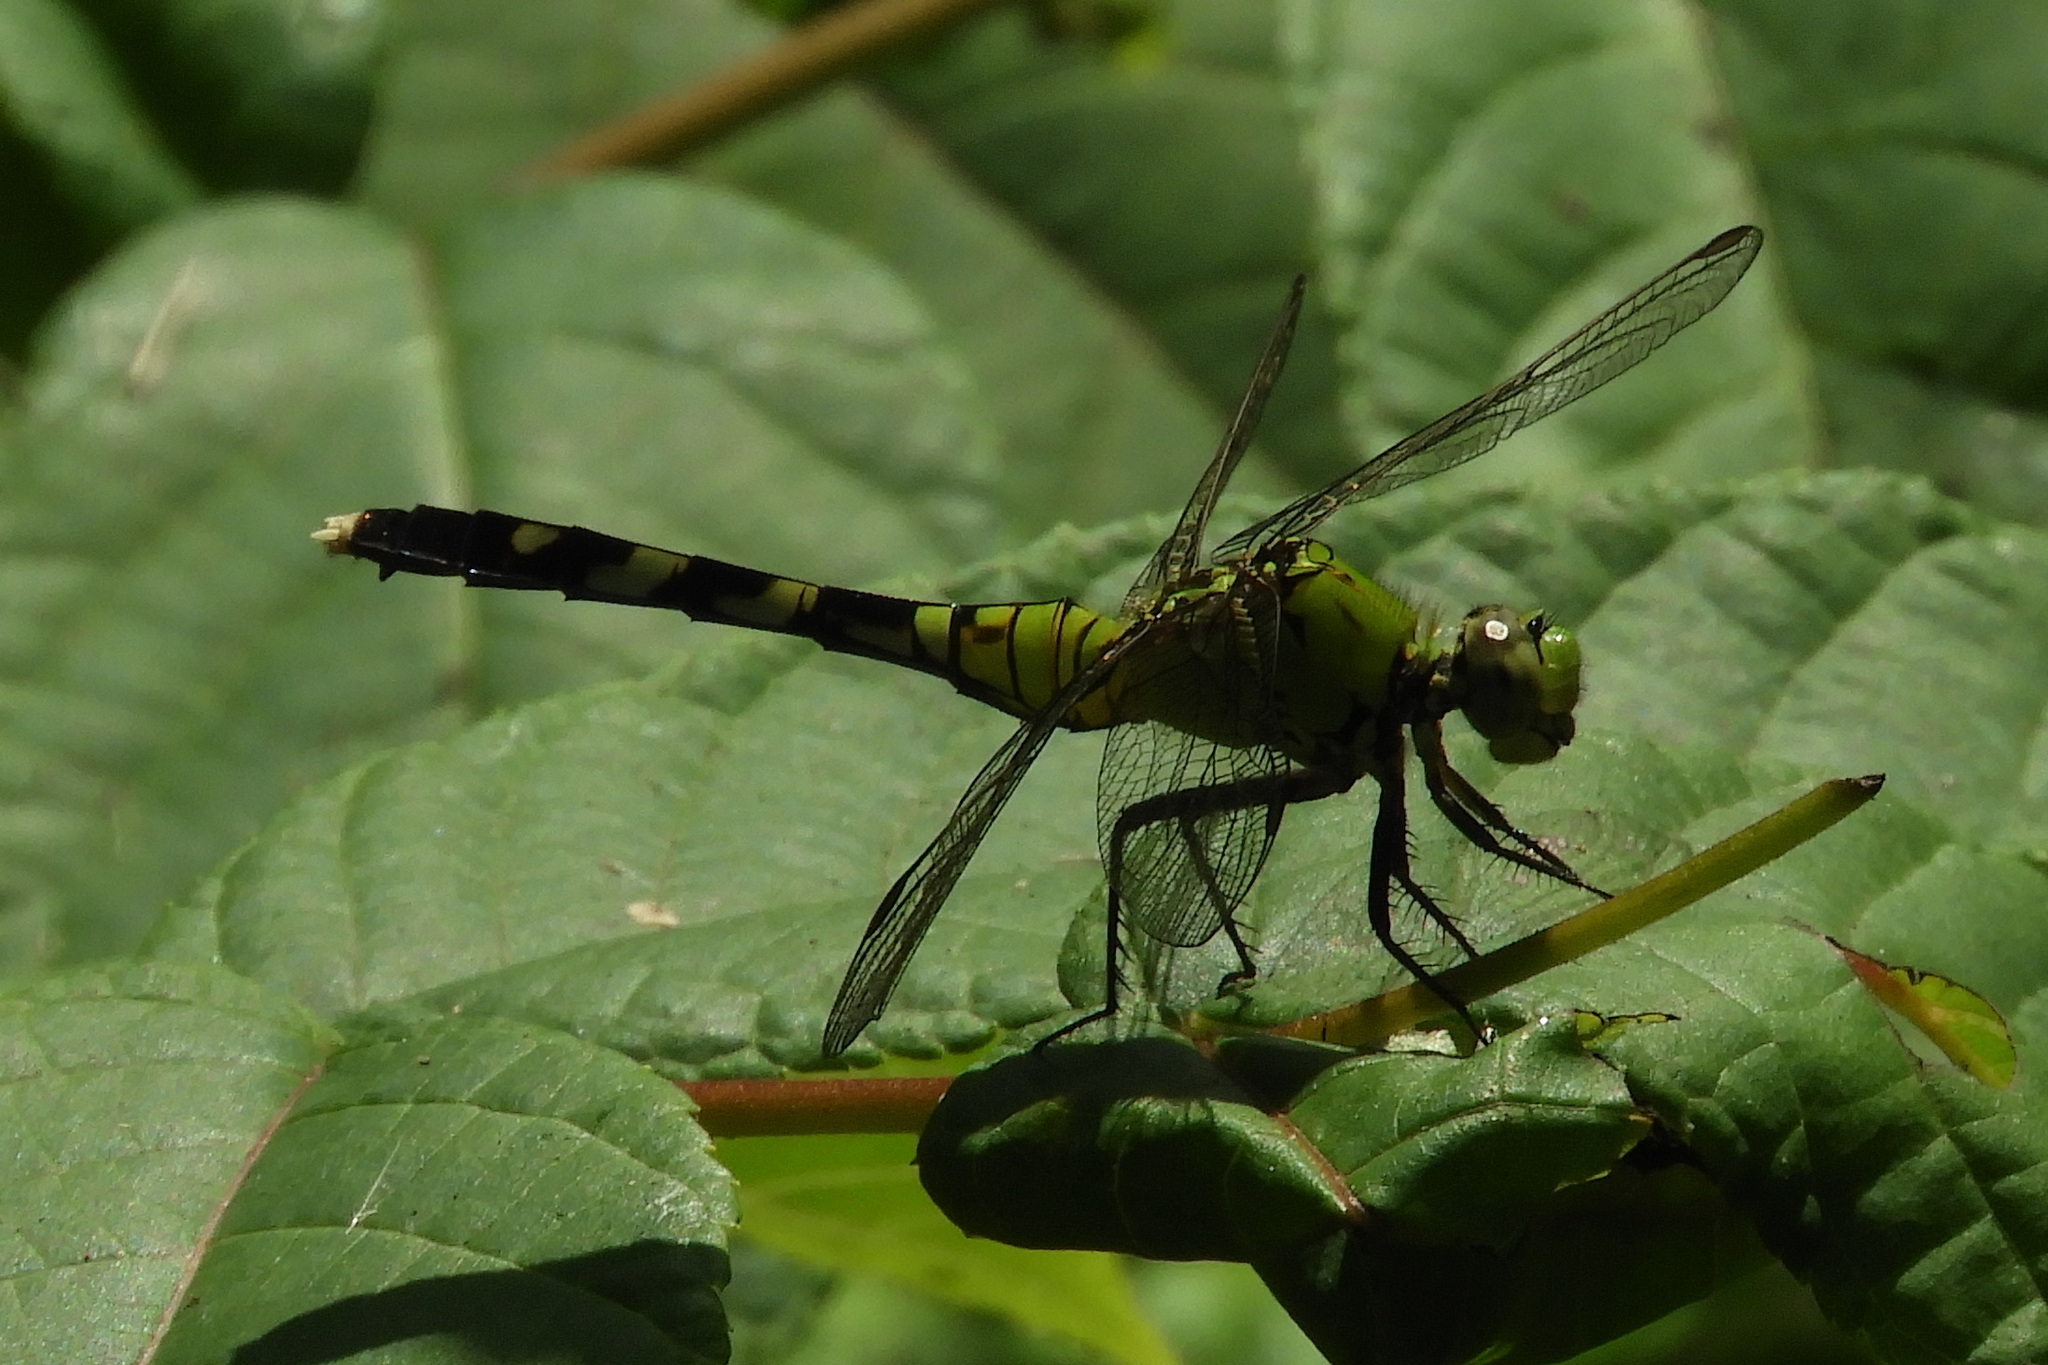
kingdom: Animalia
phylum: Arthropoda
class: Insecta
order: Odonata
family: Libellulidae
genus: Erythemis
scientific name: Erythemis simplicicollis
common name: Eastern pondhawk
